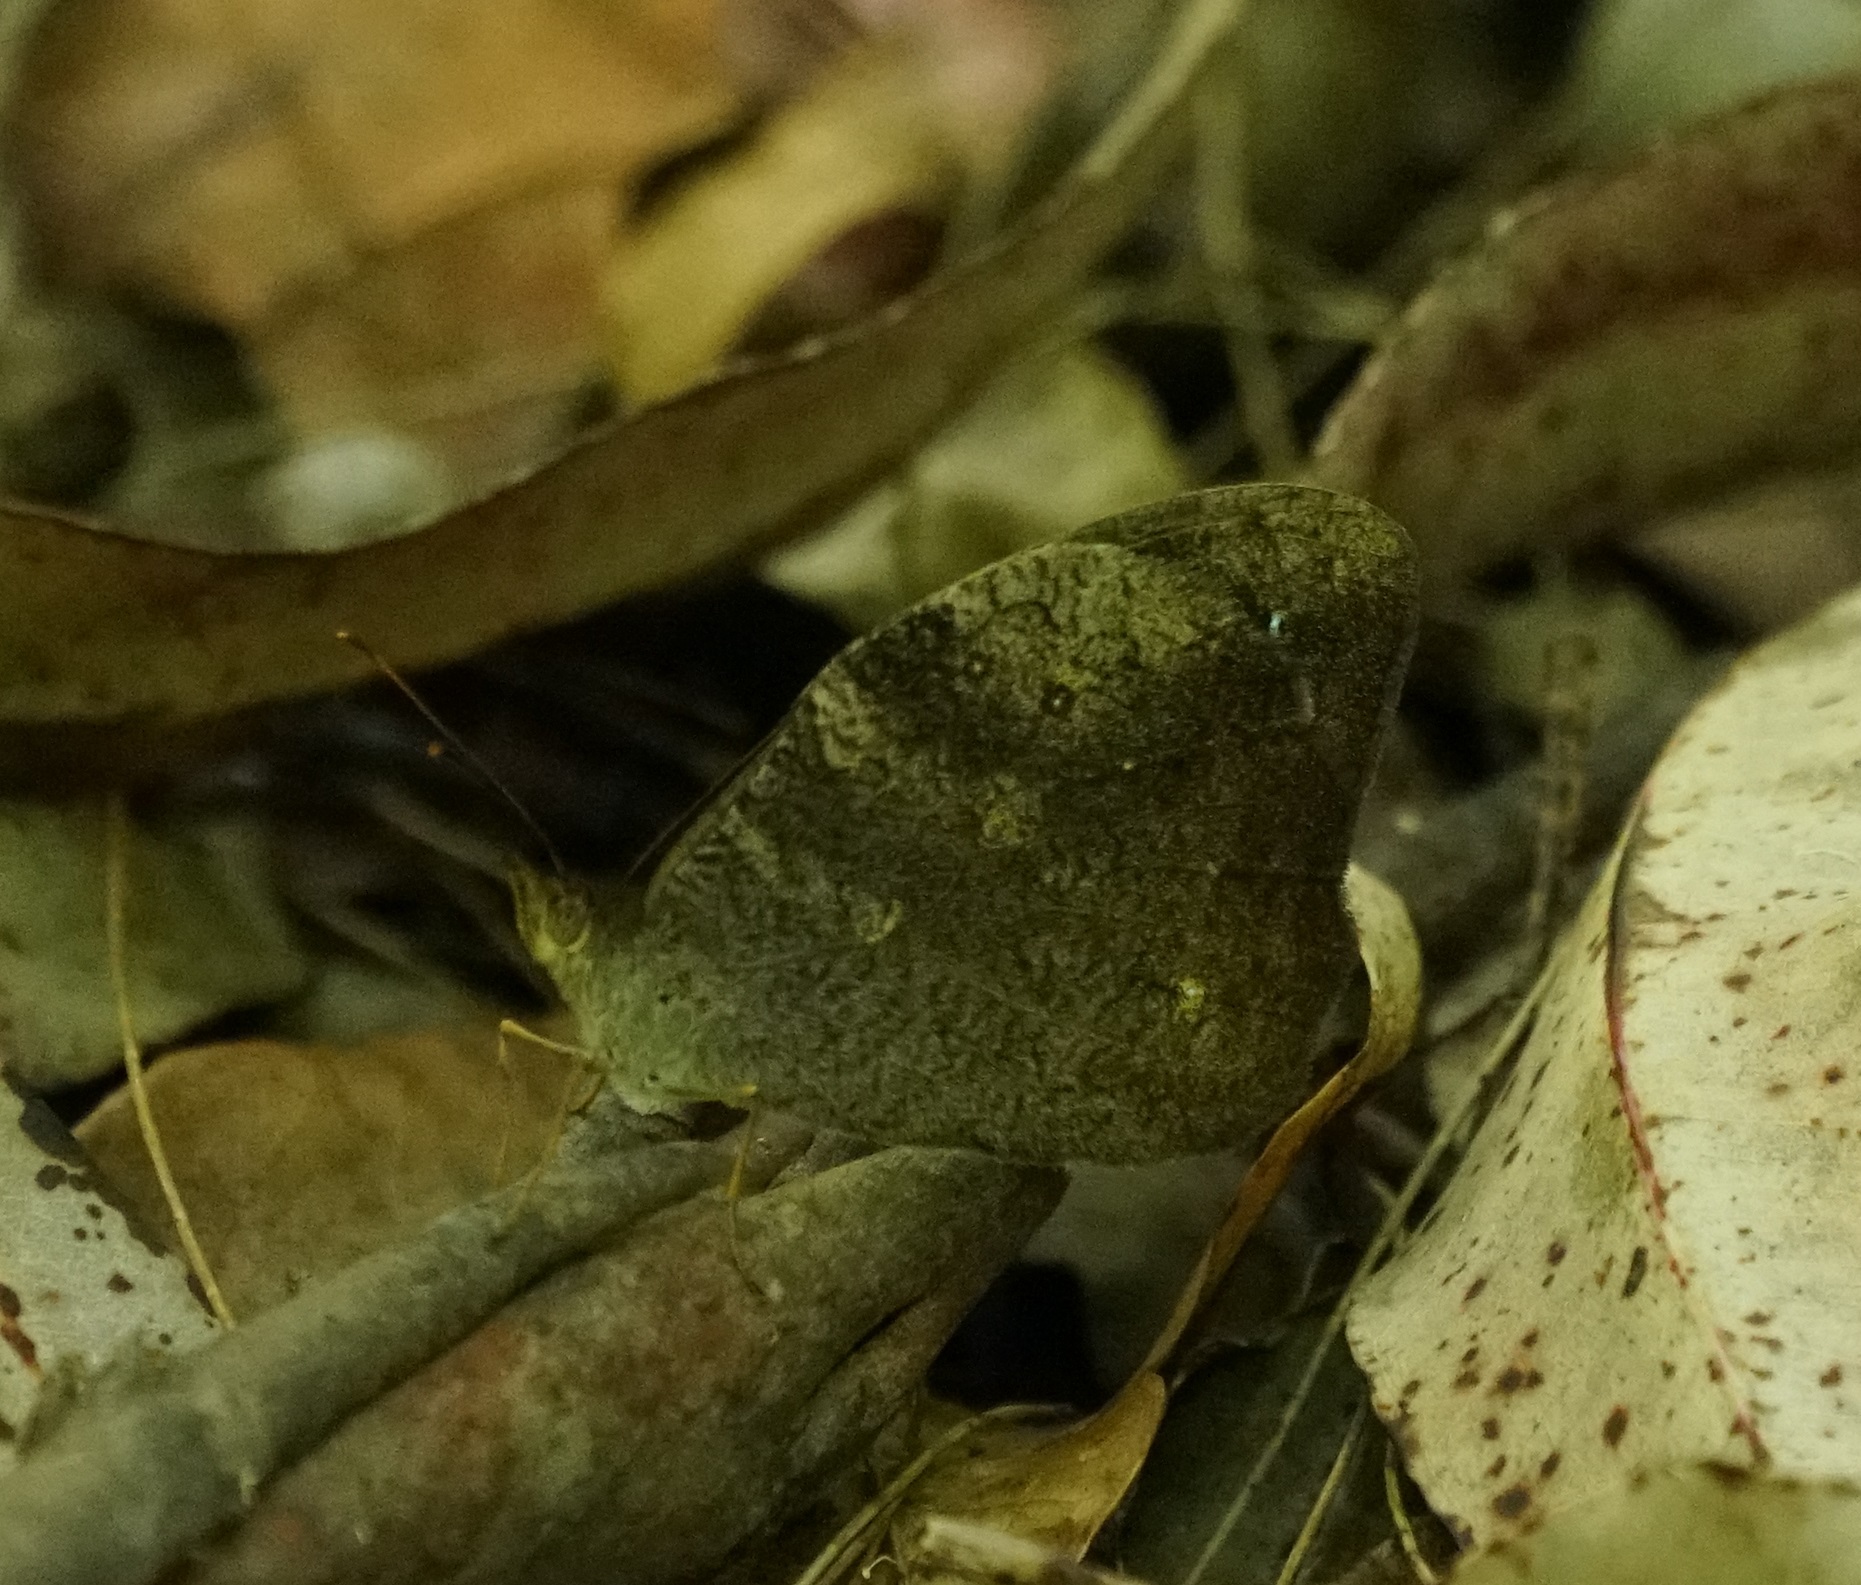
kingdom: Animalia
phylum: Arthropoda
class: Insecta
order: Lepidoptera
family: Nymphalidae
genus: Heteronympha
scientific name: Heteronympha mirifica
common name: Wonder brown
